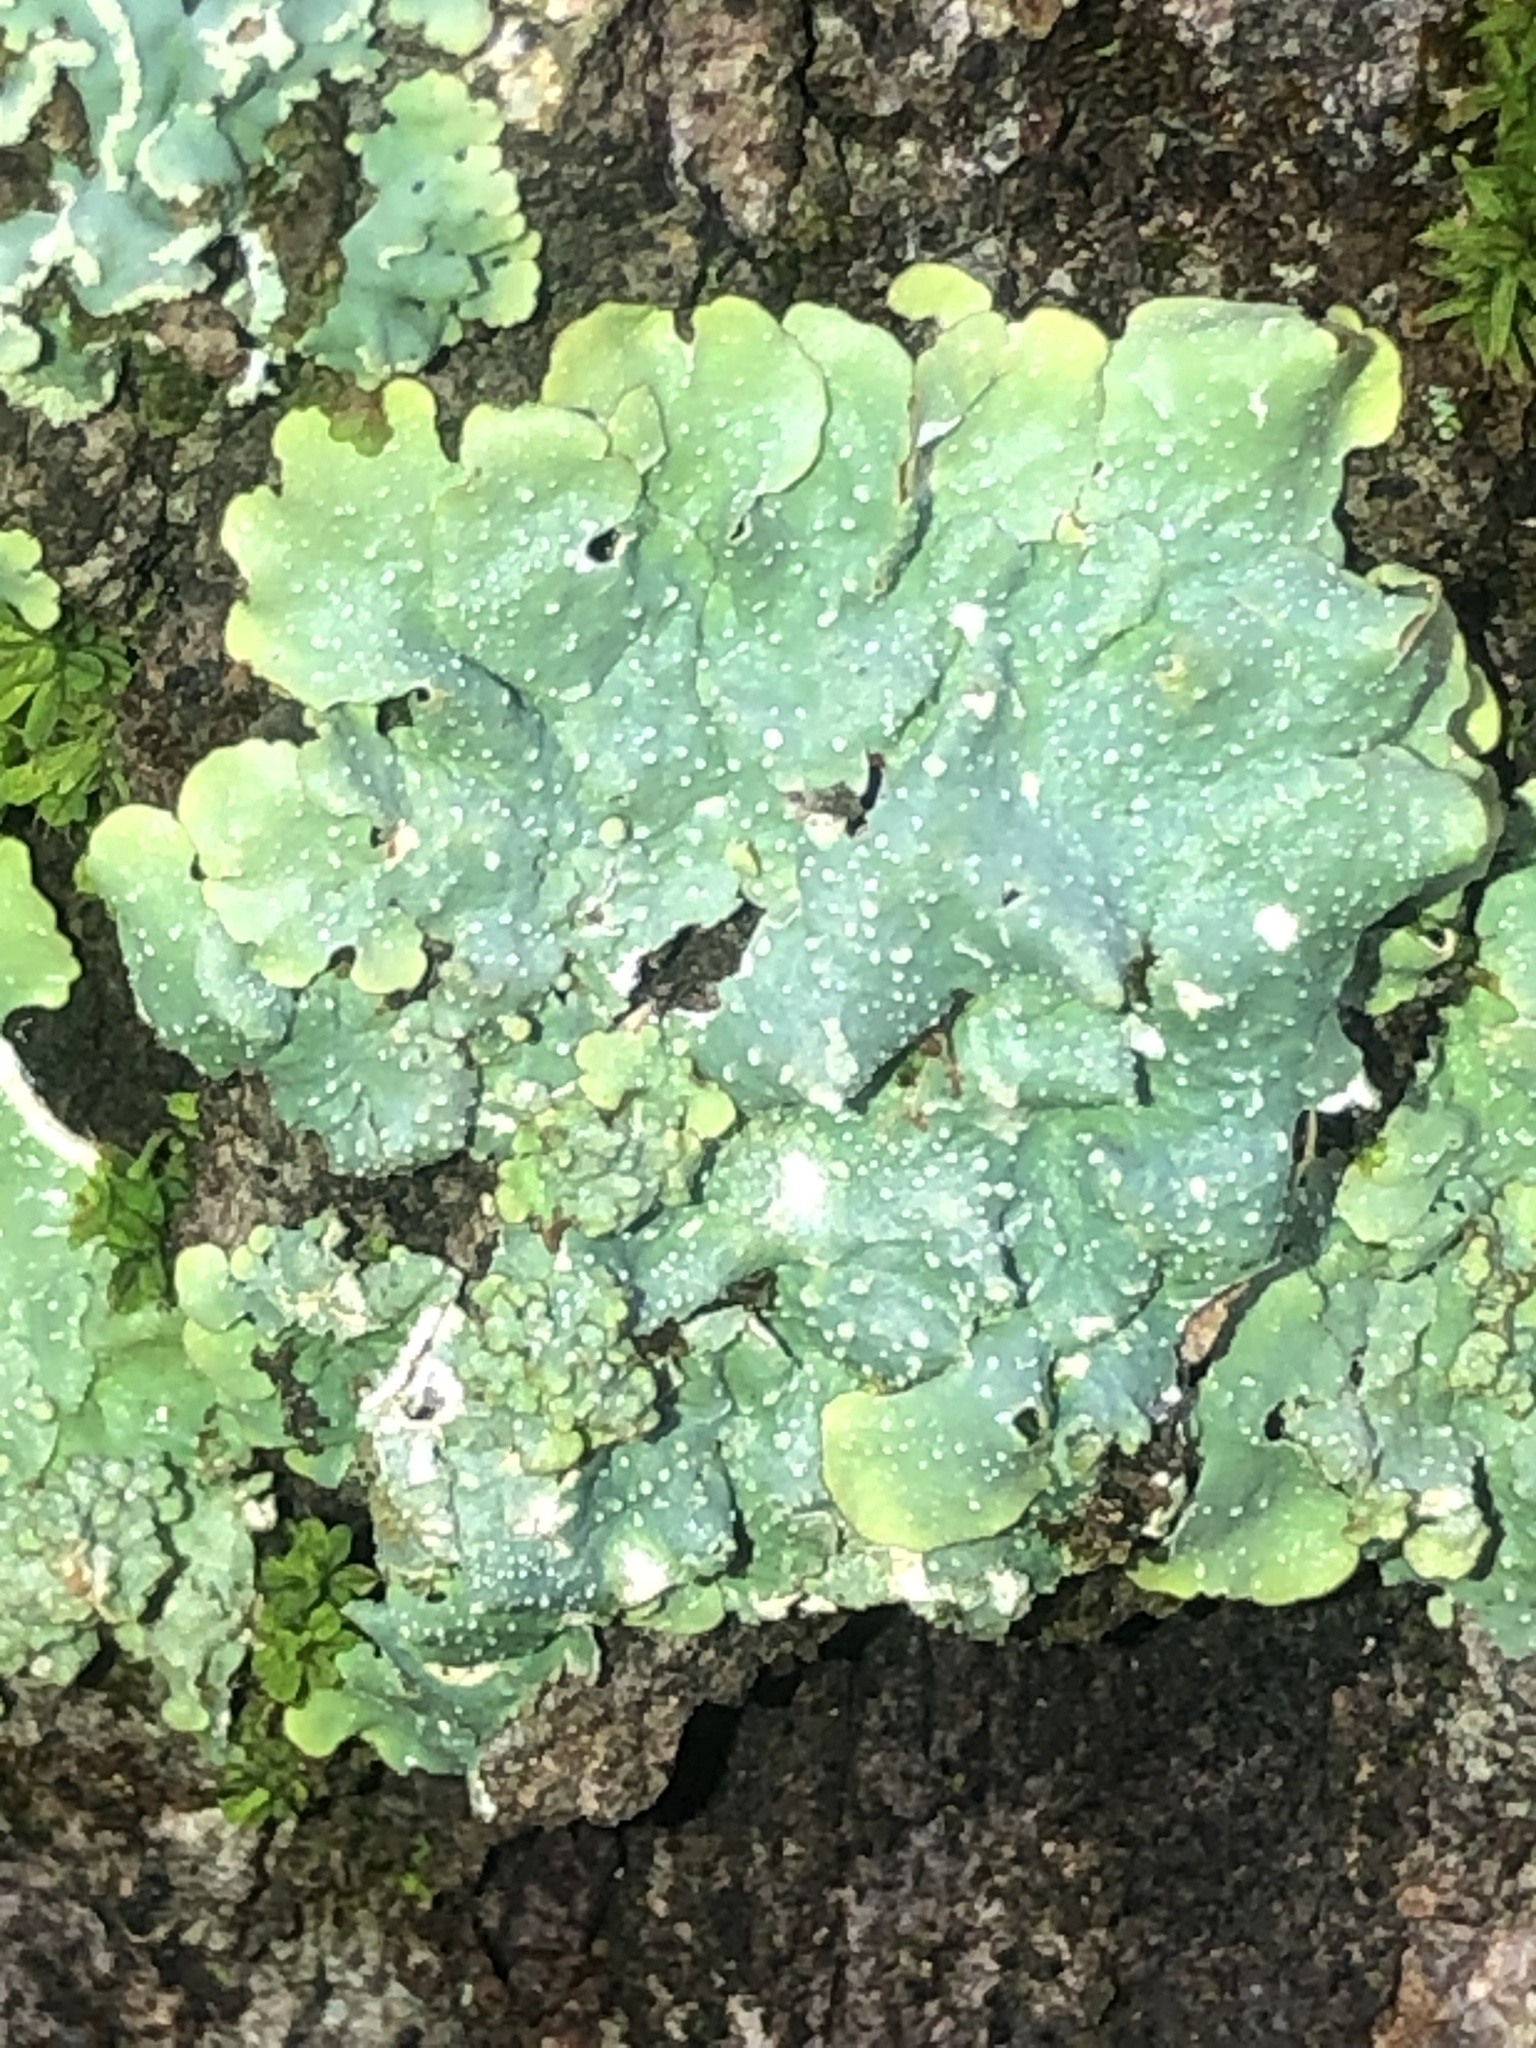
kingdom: Fungi
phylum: Ascomycota
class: Lecanoromycetes
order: Lecanorales
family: Parmeliaceae
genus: Punctelia
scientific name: Punctelia rudecta
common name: Rough speckled shield lichen
